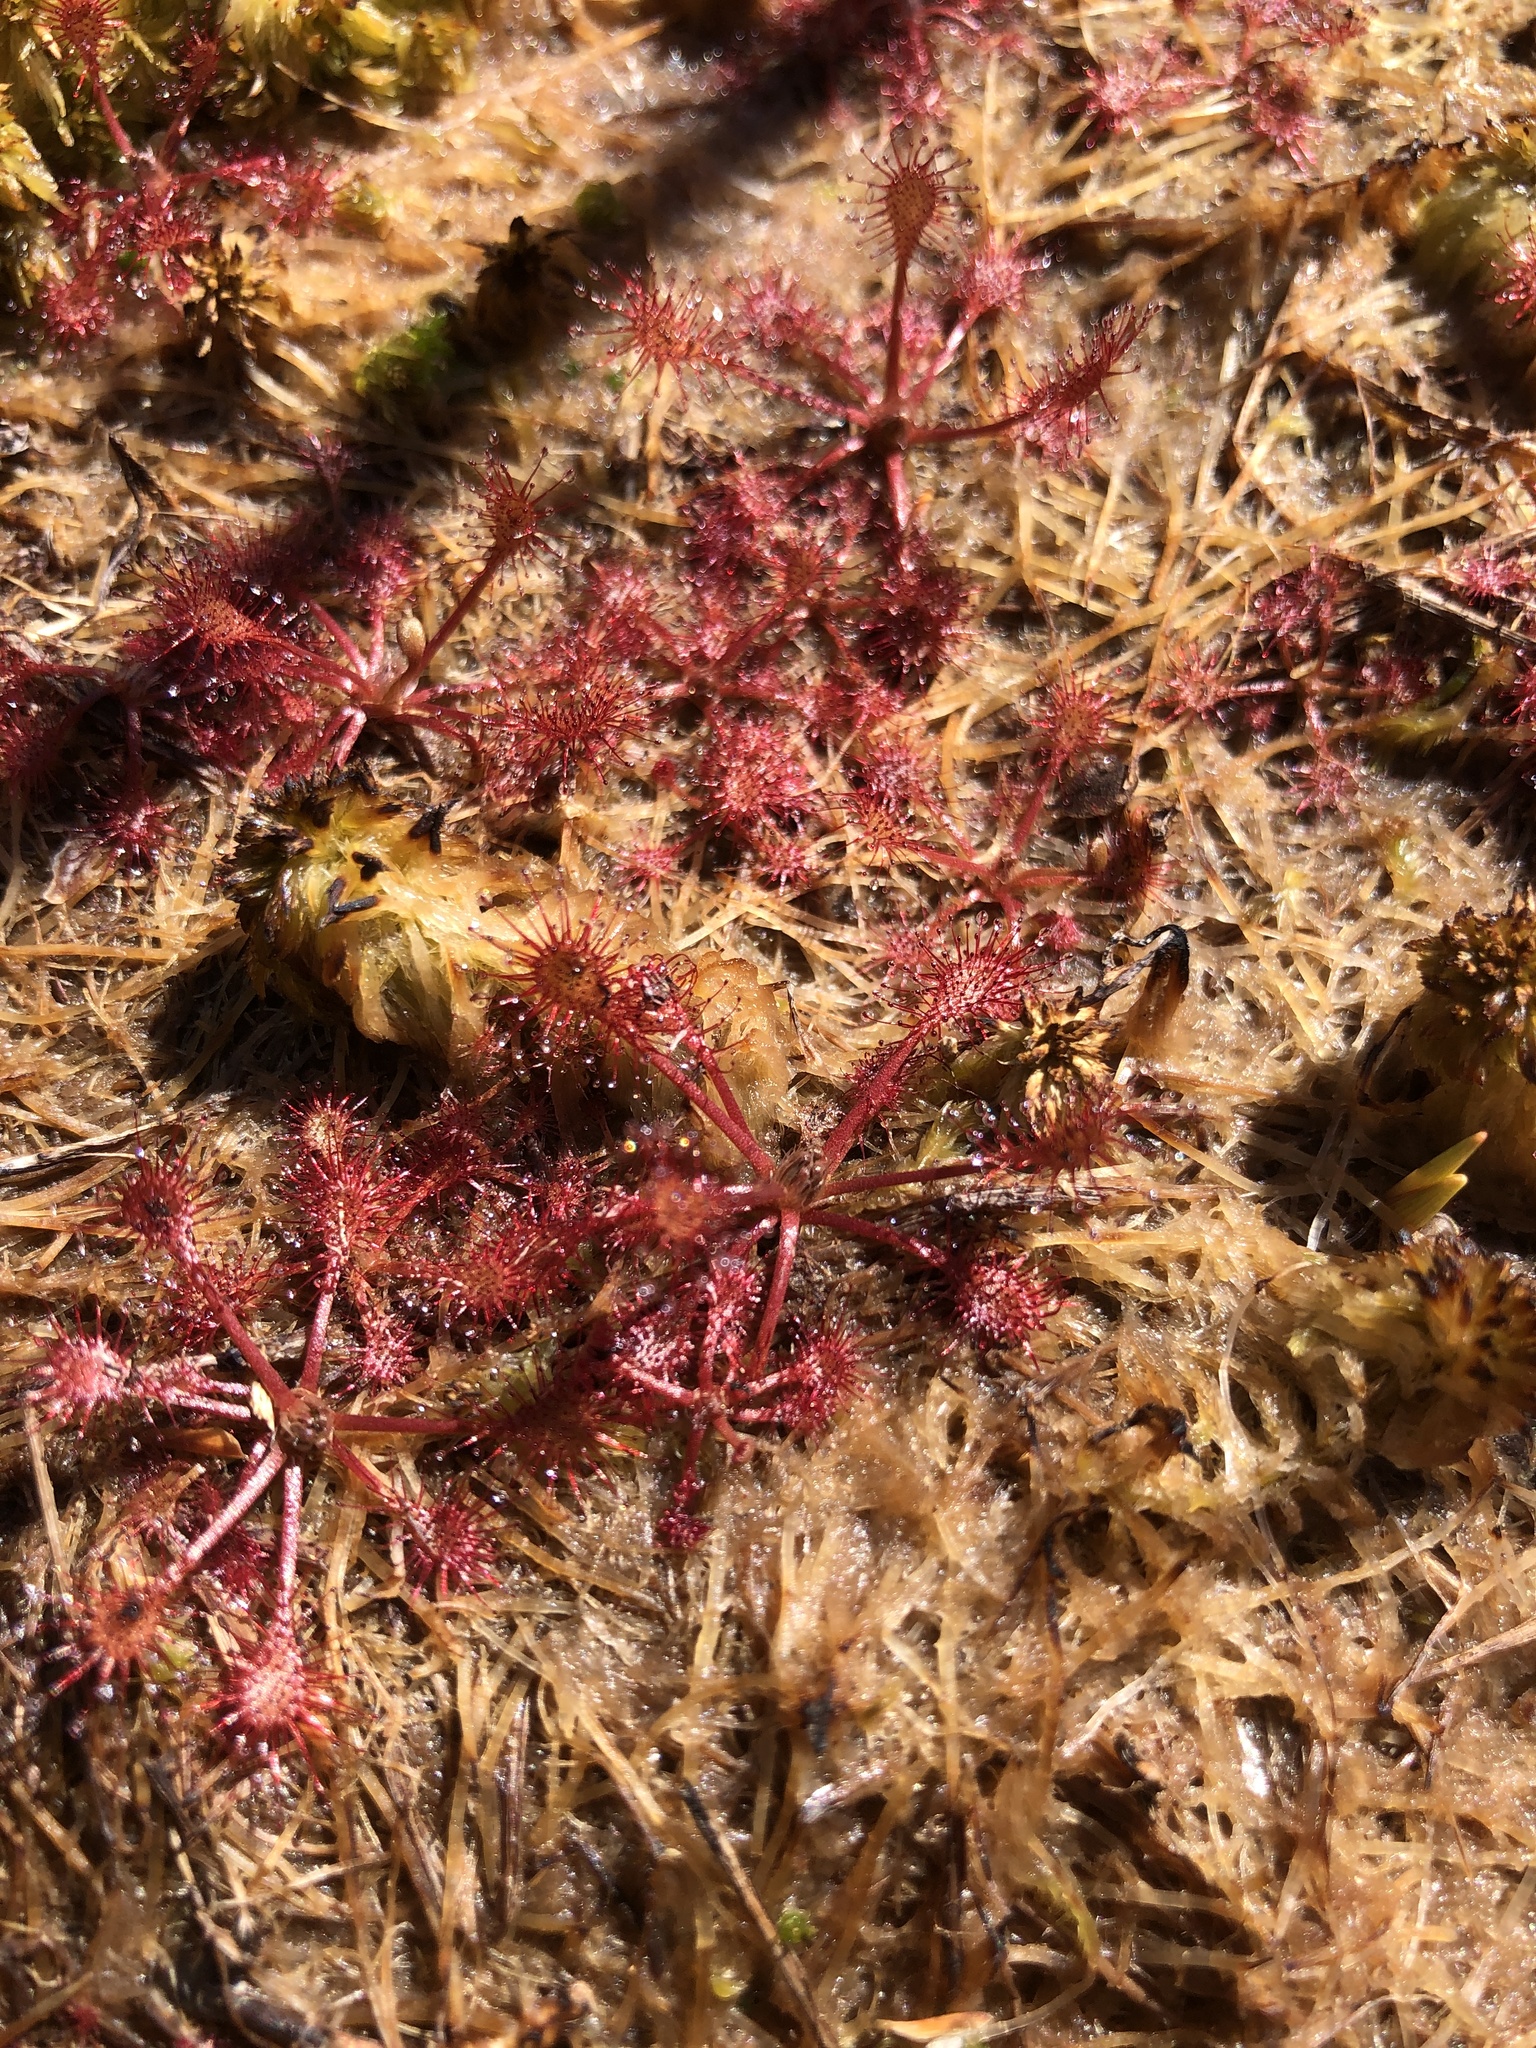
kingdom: Plantae
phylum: Tracheophyta
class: Magnoliopsida
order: Caryophyllales
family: Droseraceae
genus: Drosera
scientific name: Drosera intermedia
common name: Oblong-leaved sundew
